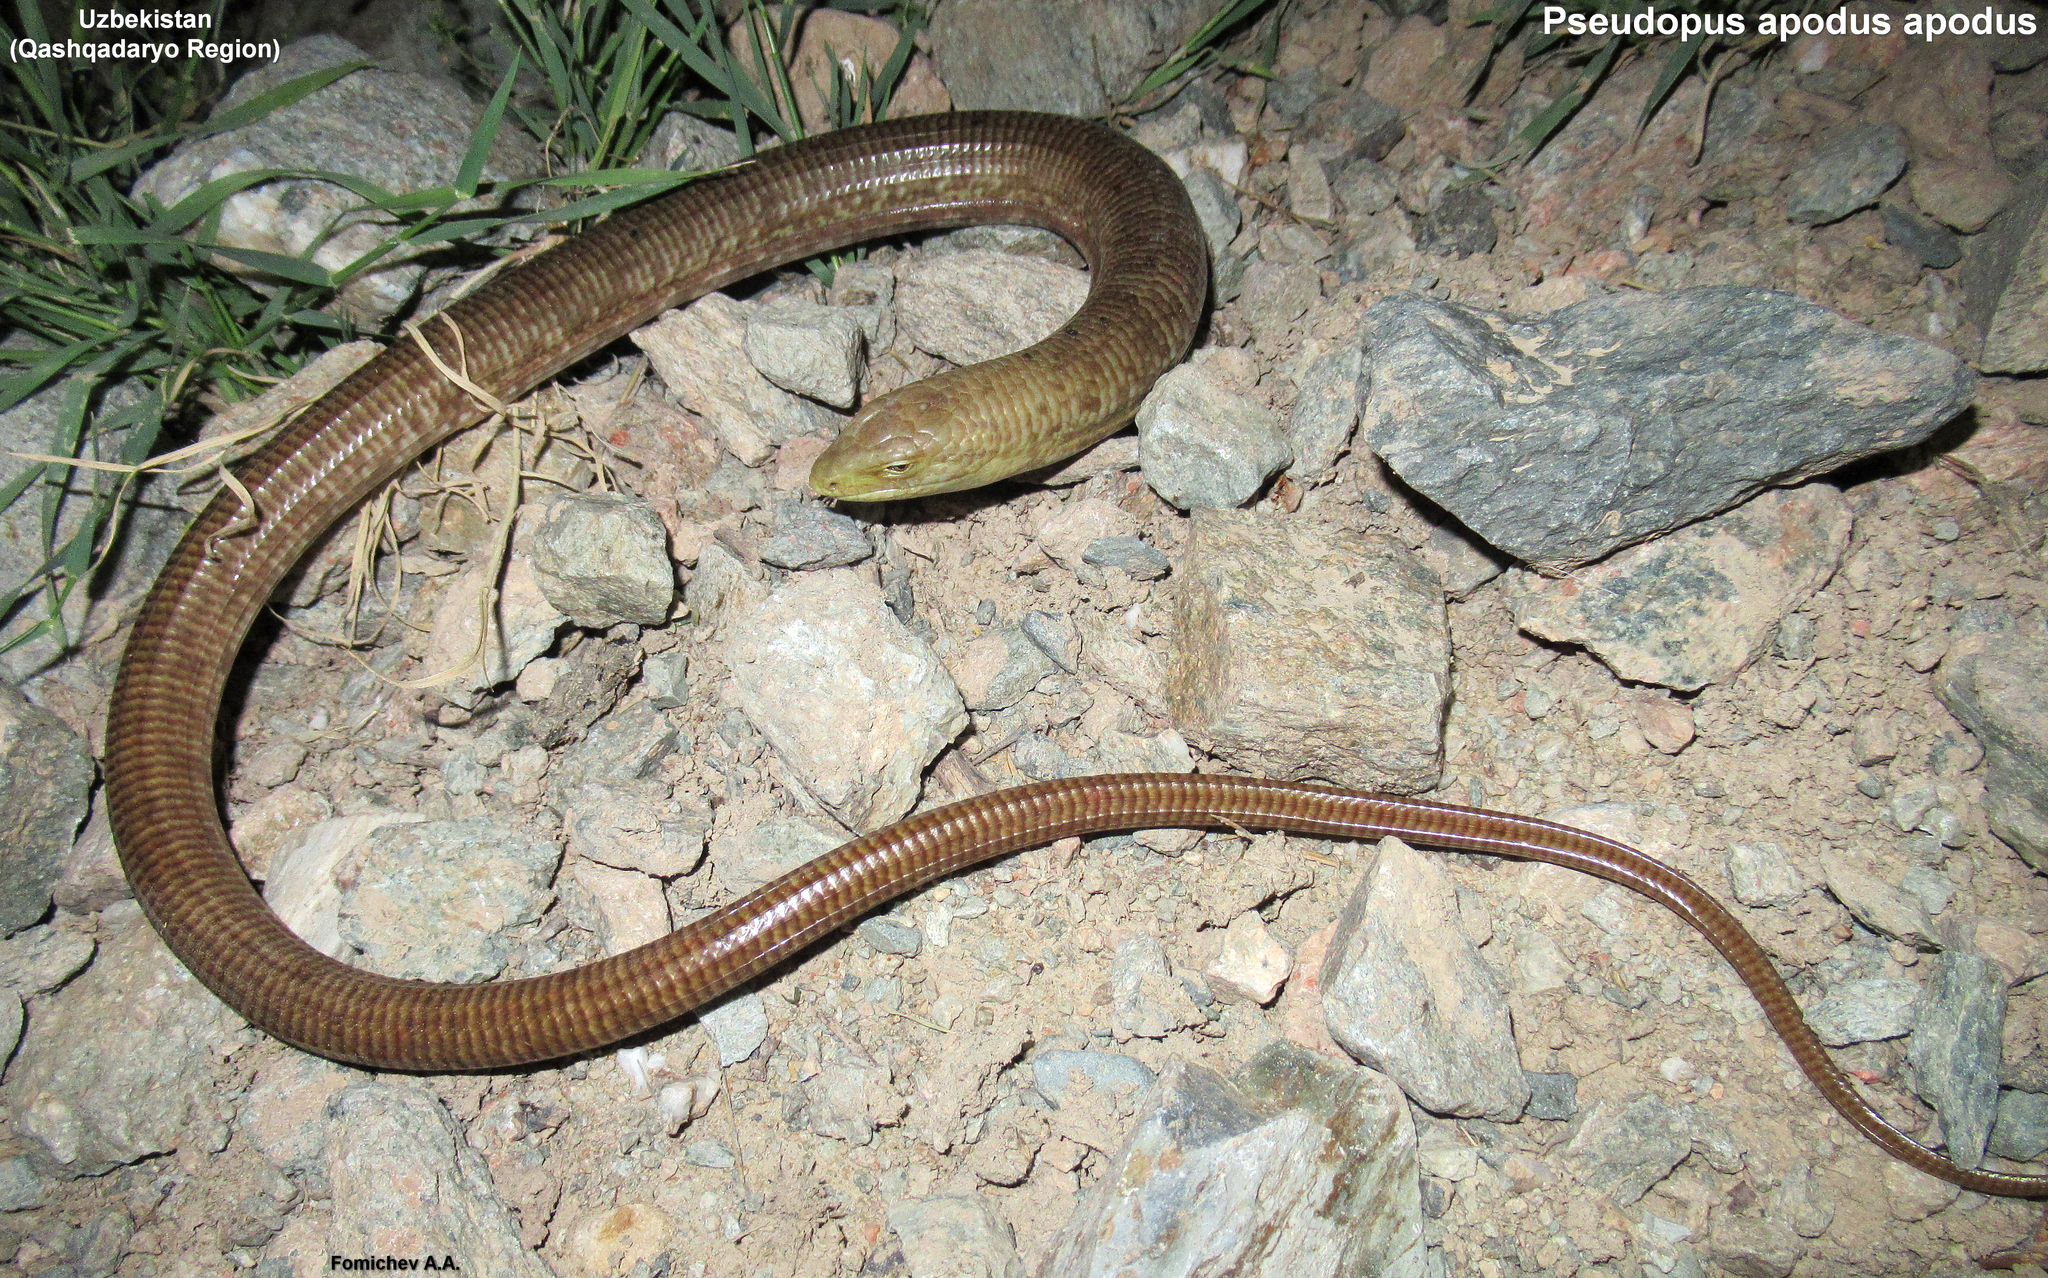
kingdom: Animalia
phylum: Chordata
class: Squamata
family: Anguidae
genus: Pseudopus
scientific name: Pseudopus apodus
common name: European glass lizard
